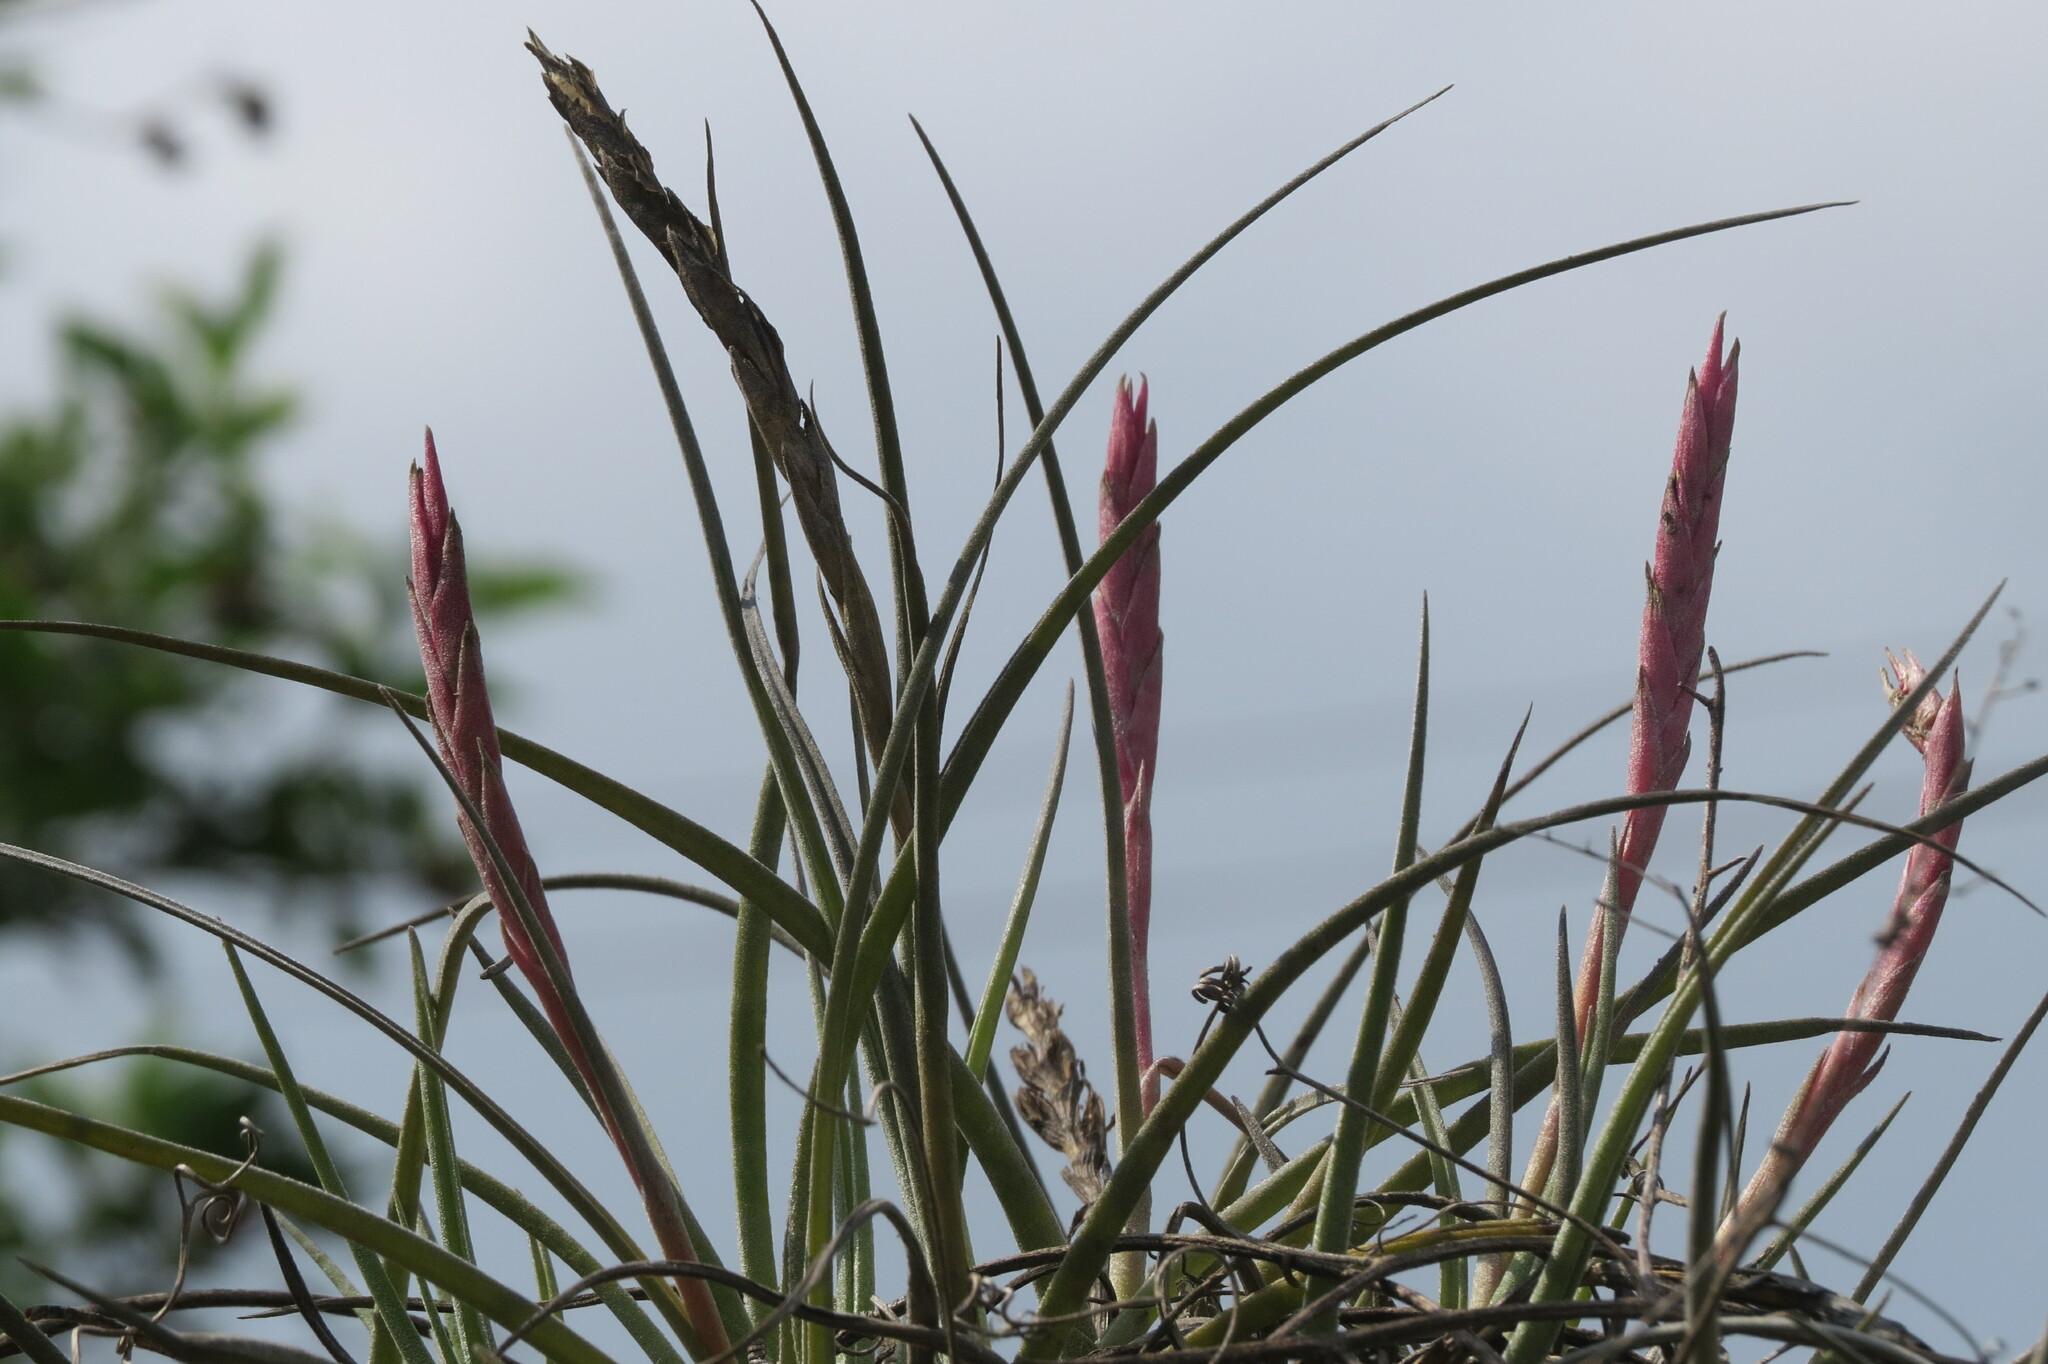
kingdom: Plantae
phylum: Tracheophyta
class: Liliopsida
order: Poales
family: Bromeliaceae
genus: Tillandsia
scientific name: Tillandsia baileyi
